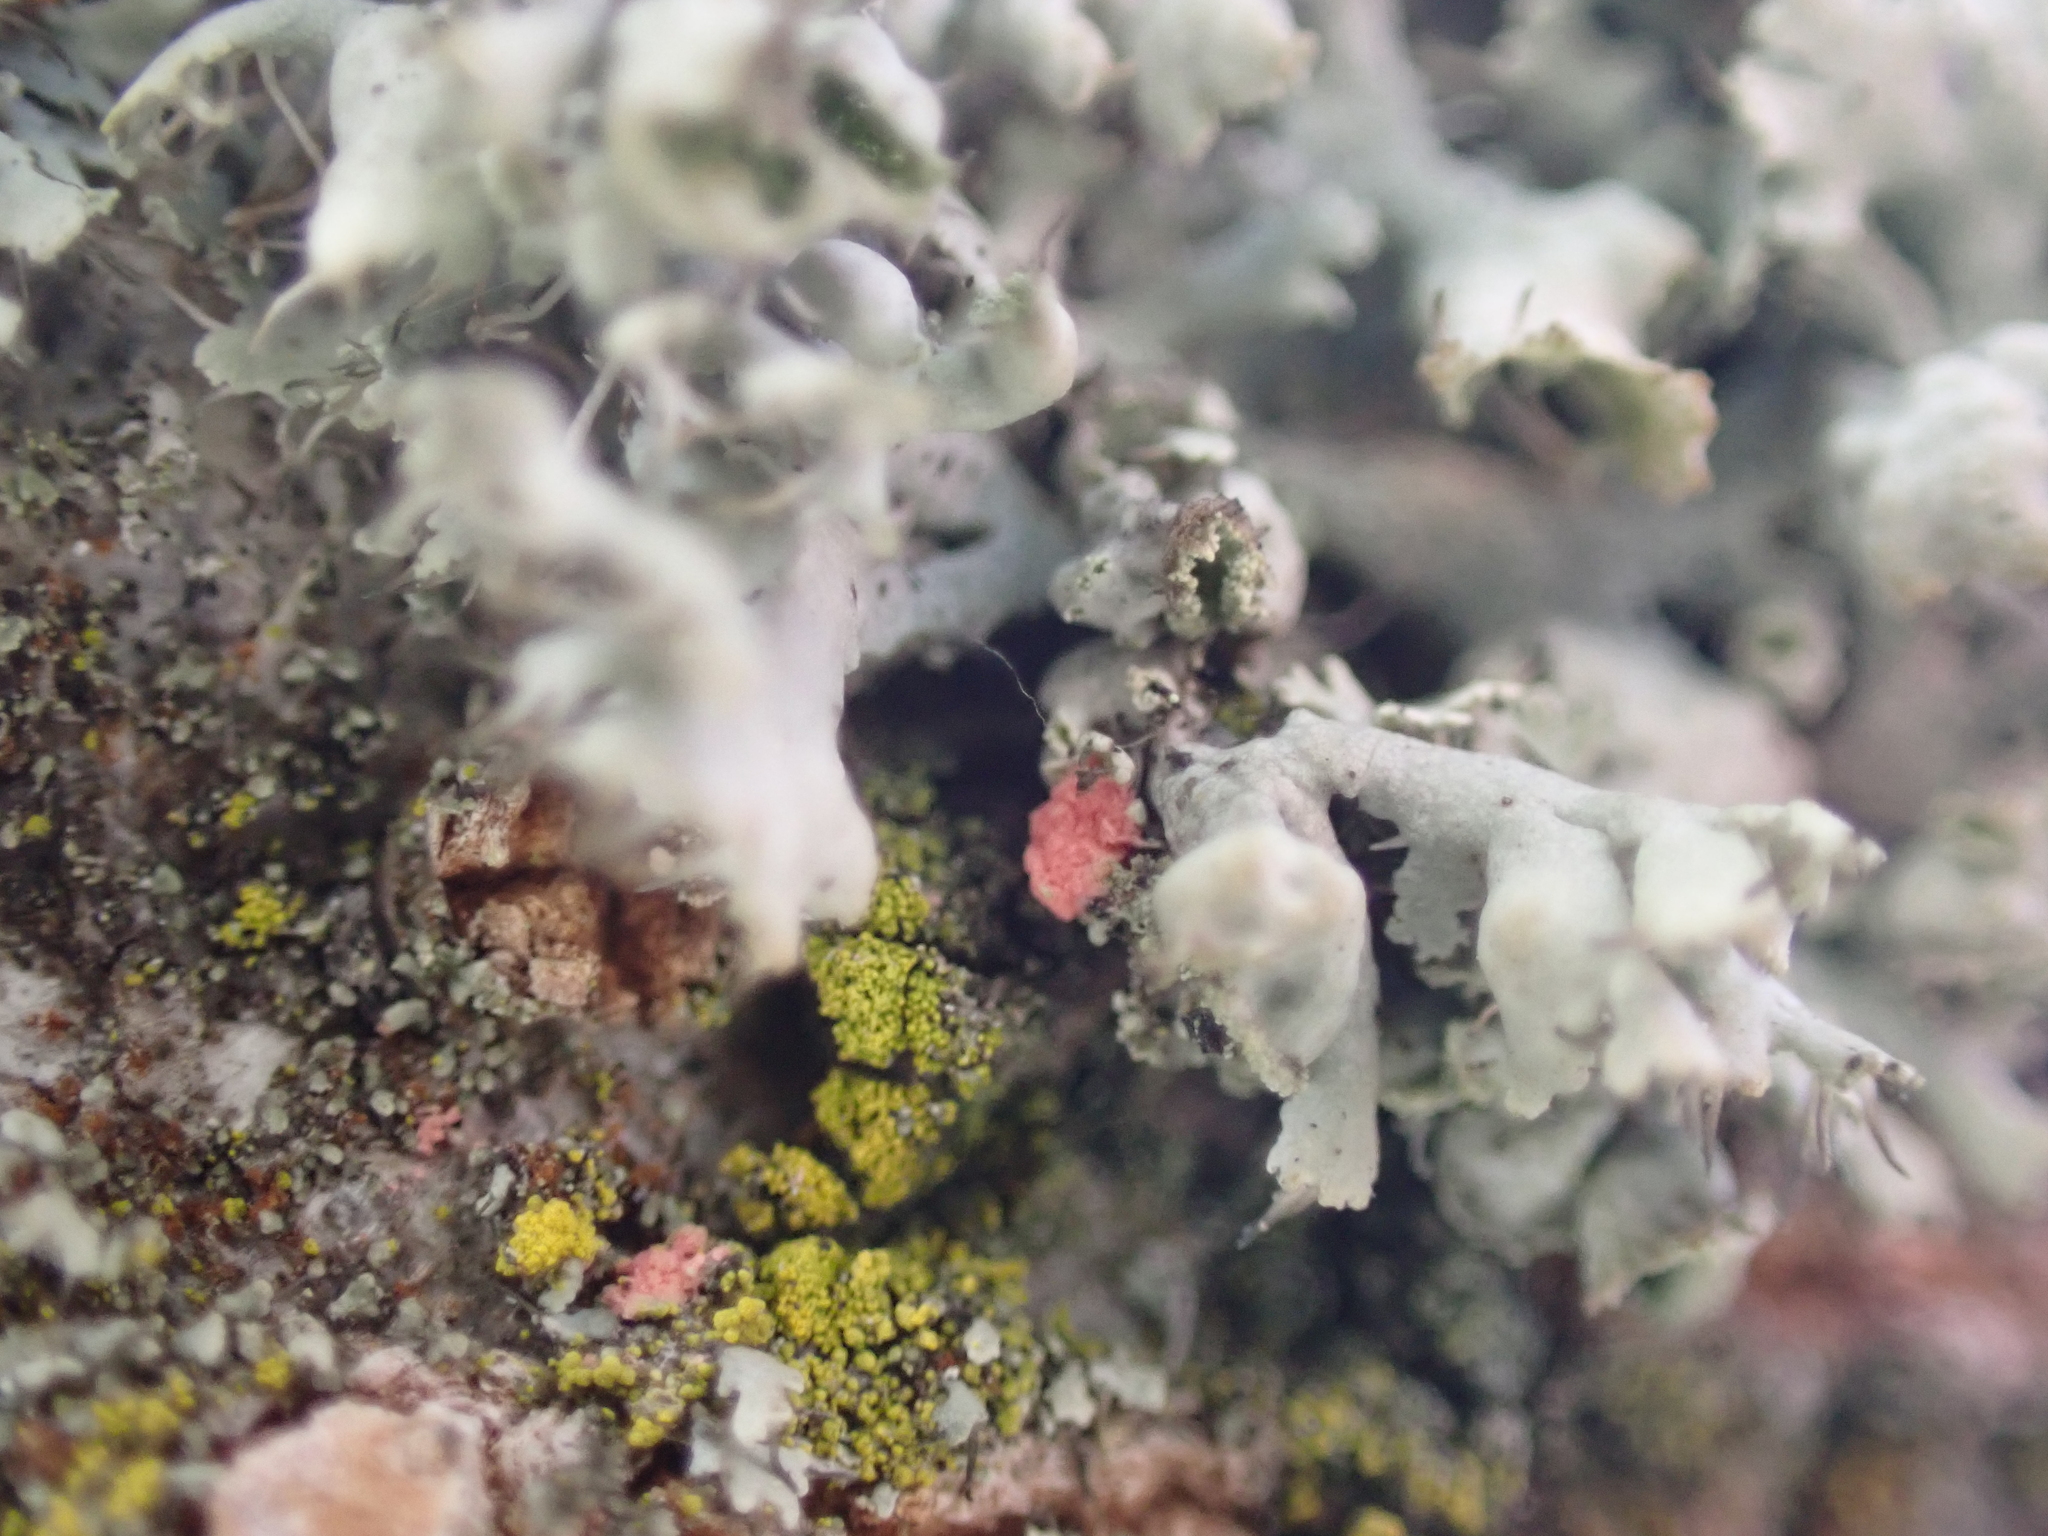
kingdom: Fungi
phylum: Ascomycota
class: Sordariomycetes
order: Hypocreales
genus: Illosporiopsis
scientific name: Illosporiopsis christiansenii
